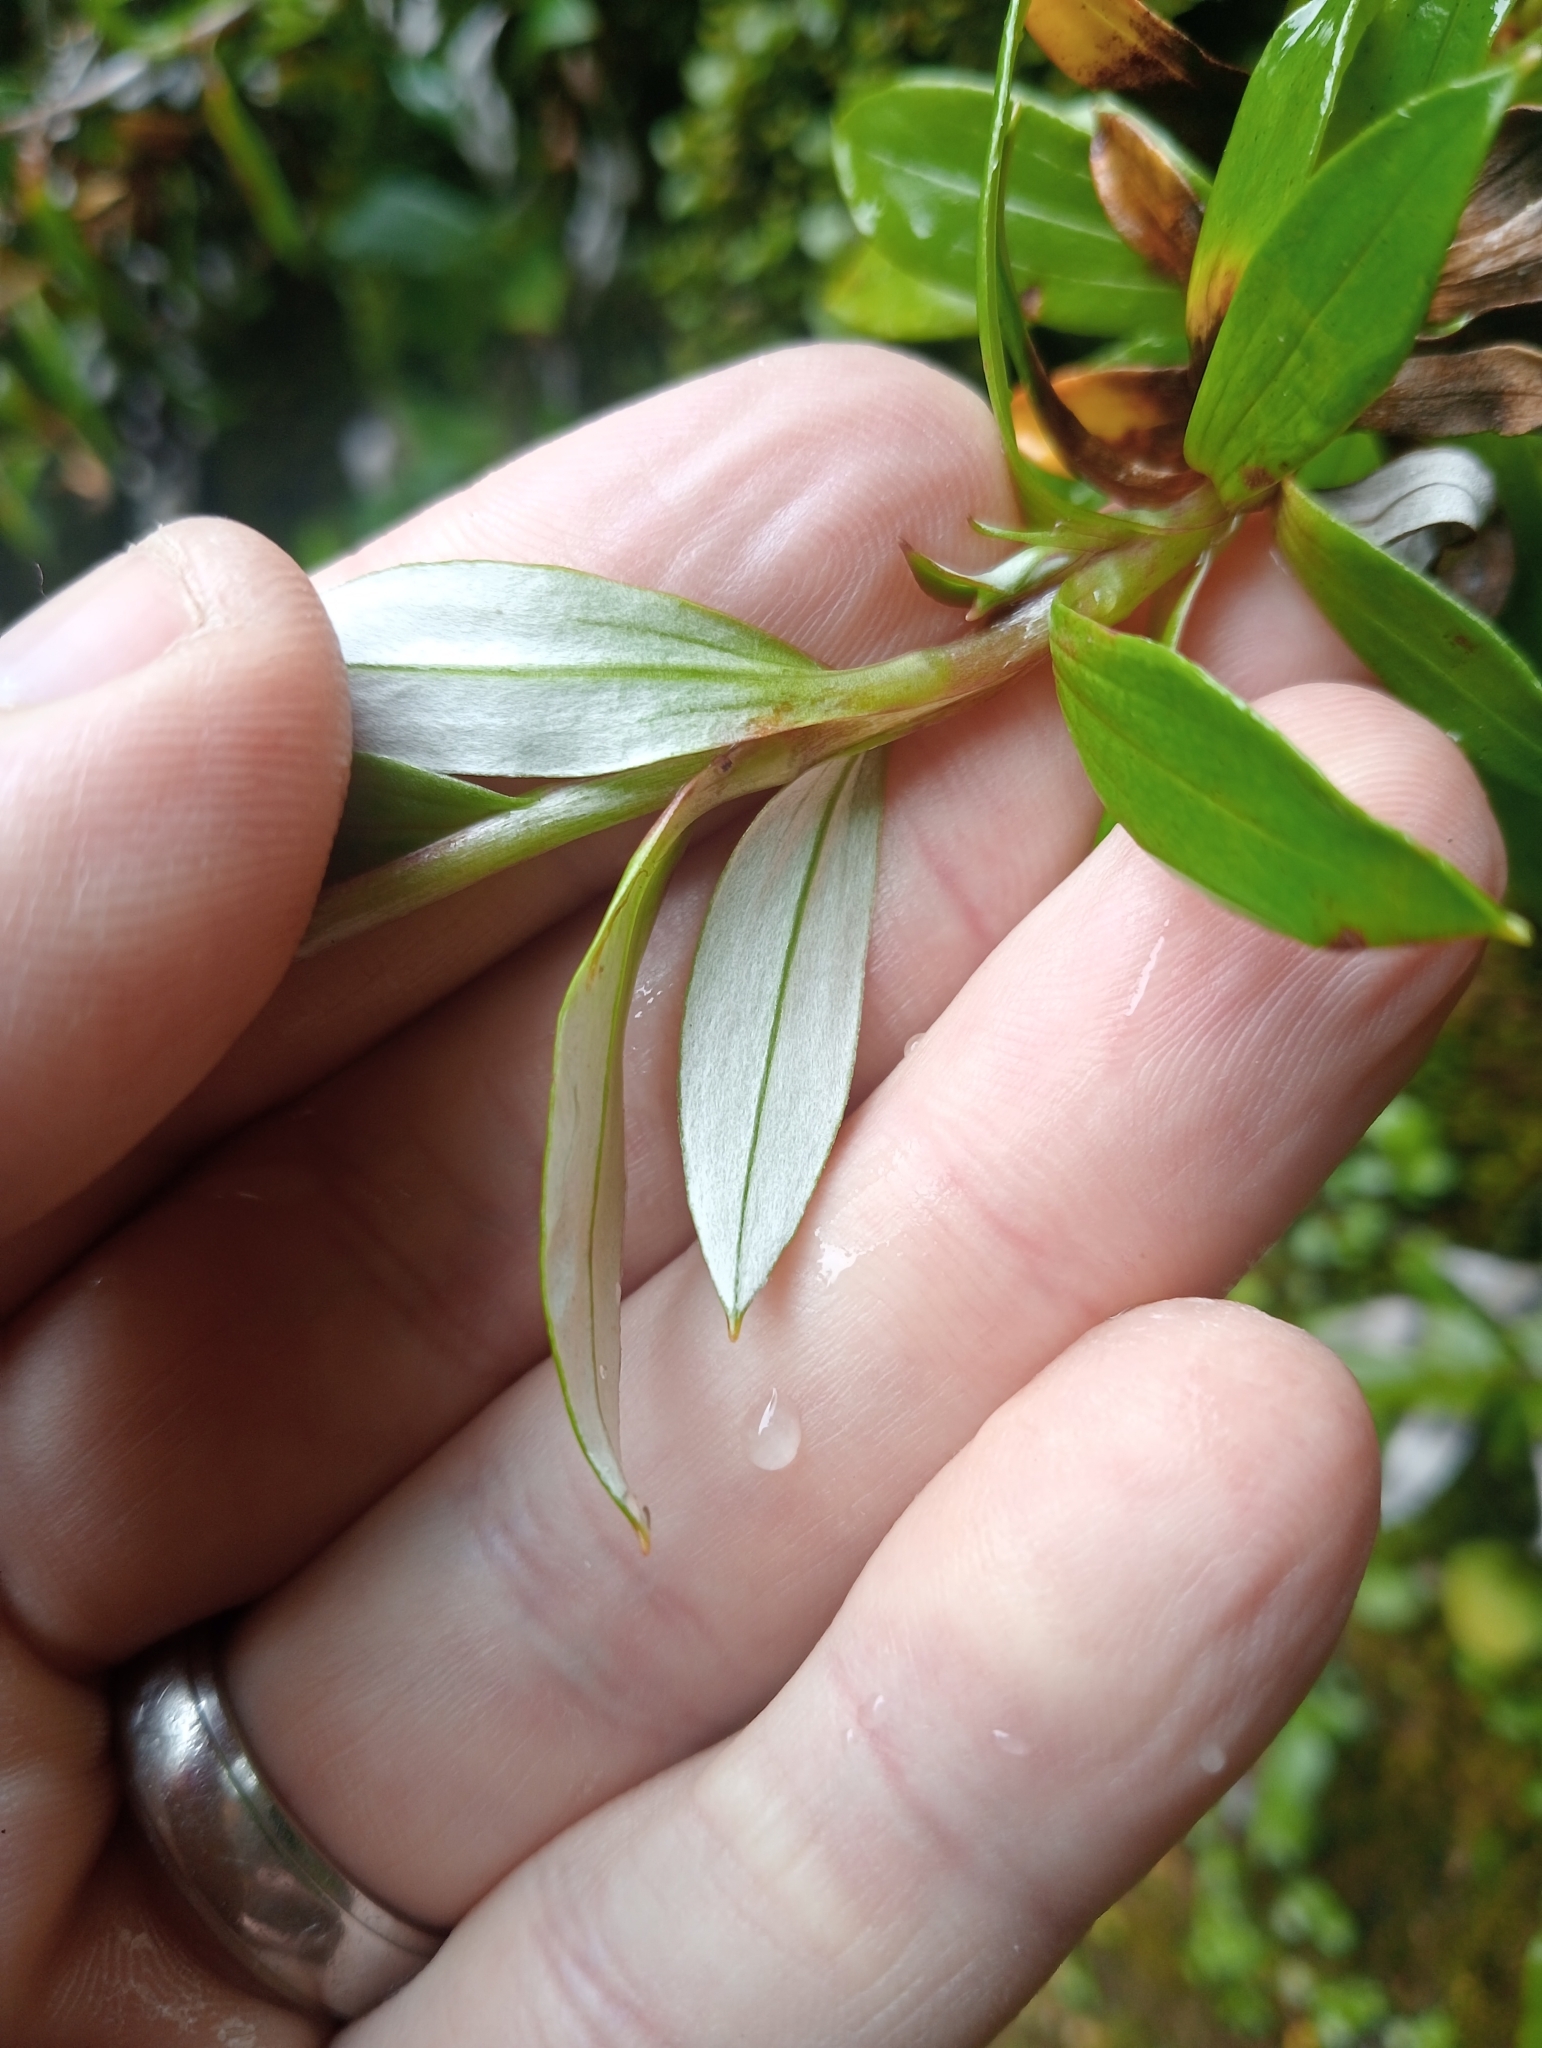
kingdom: Plantae
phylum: Tracheophyta
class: Magnoliopsida
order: Asterales
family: Asteraceae
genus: Anaphalioides
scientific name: Anaphalioides trinervis
